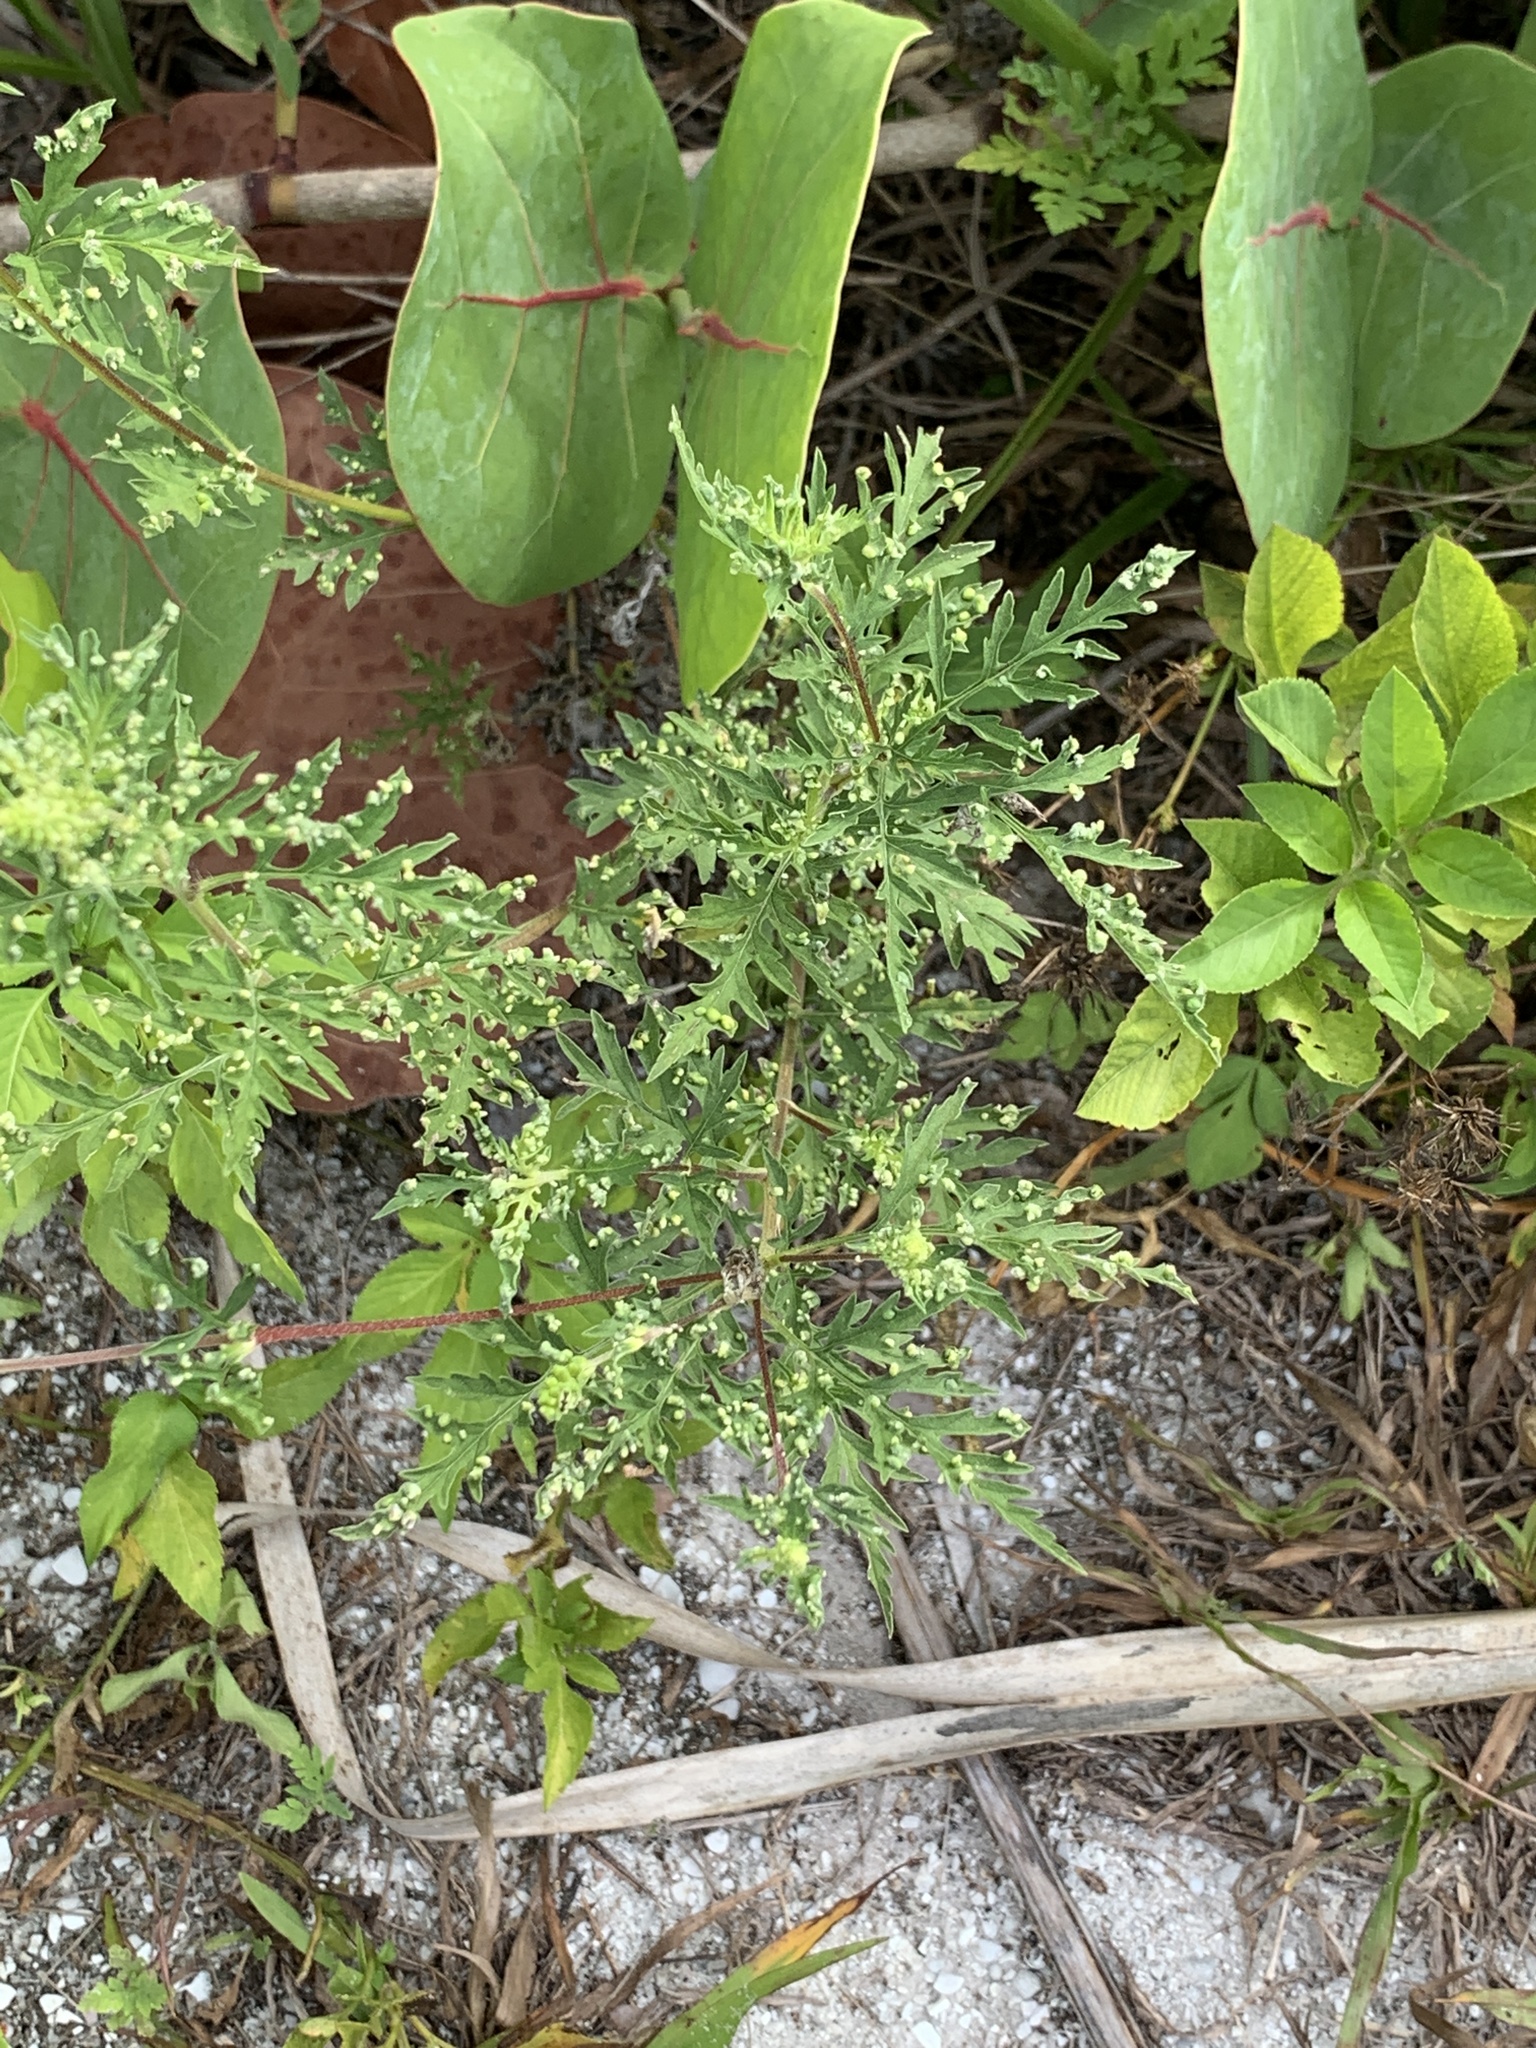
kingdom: Plantae
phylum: Tracheophyta
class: Magnoliopsida
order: Brassicales
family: Brassicaceae
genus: Descurainia
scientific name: Descurainia pinnata
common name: Western tansy mustard
